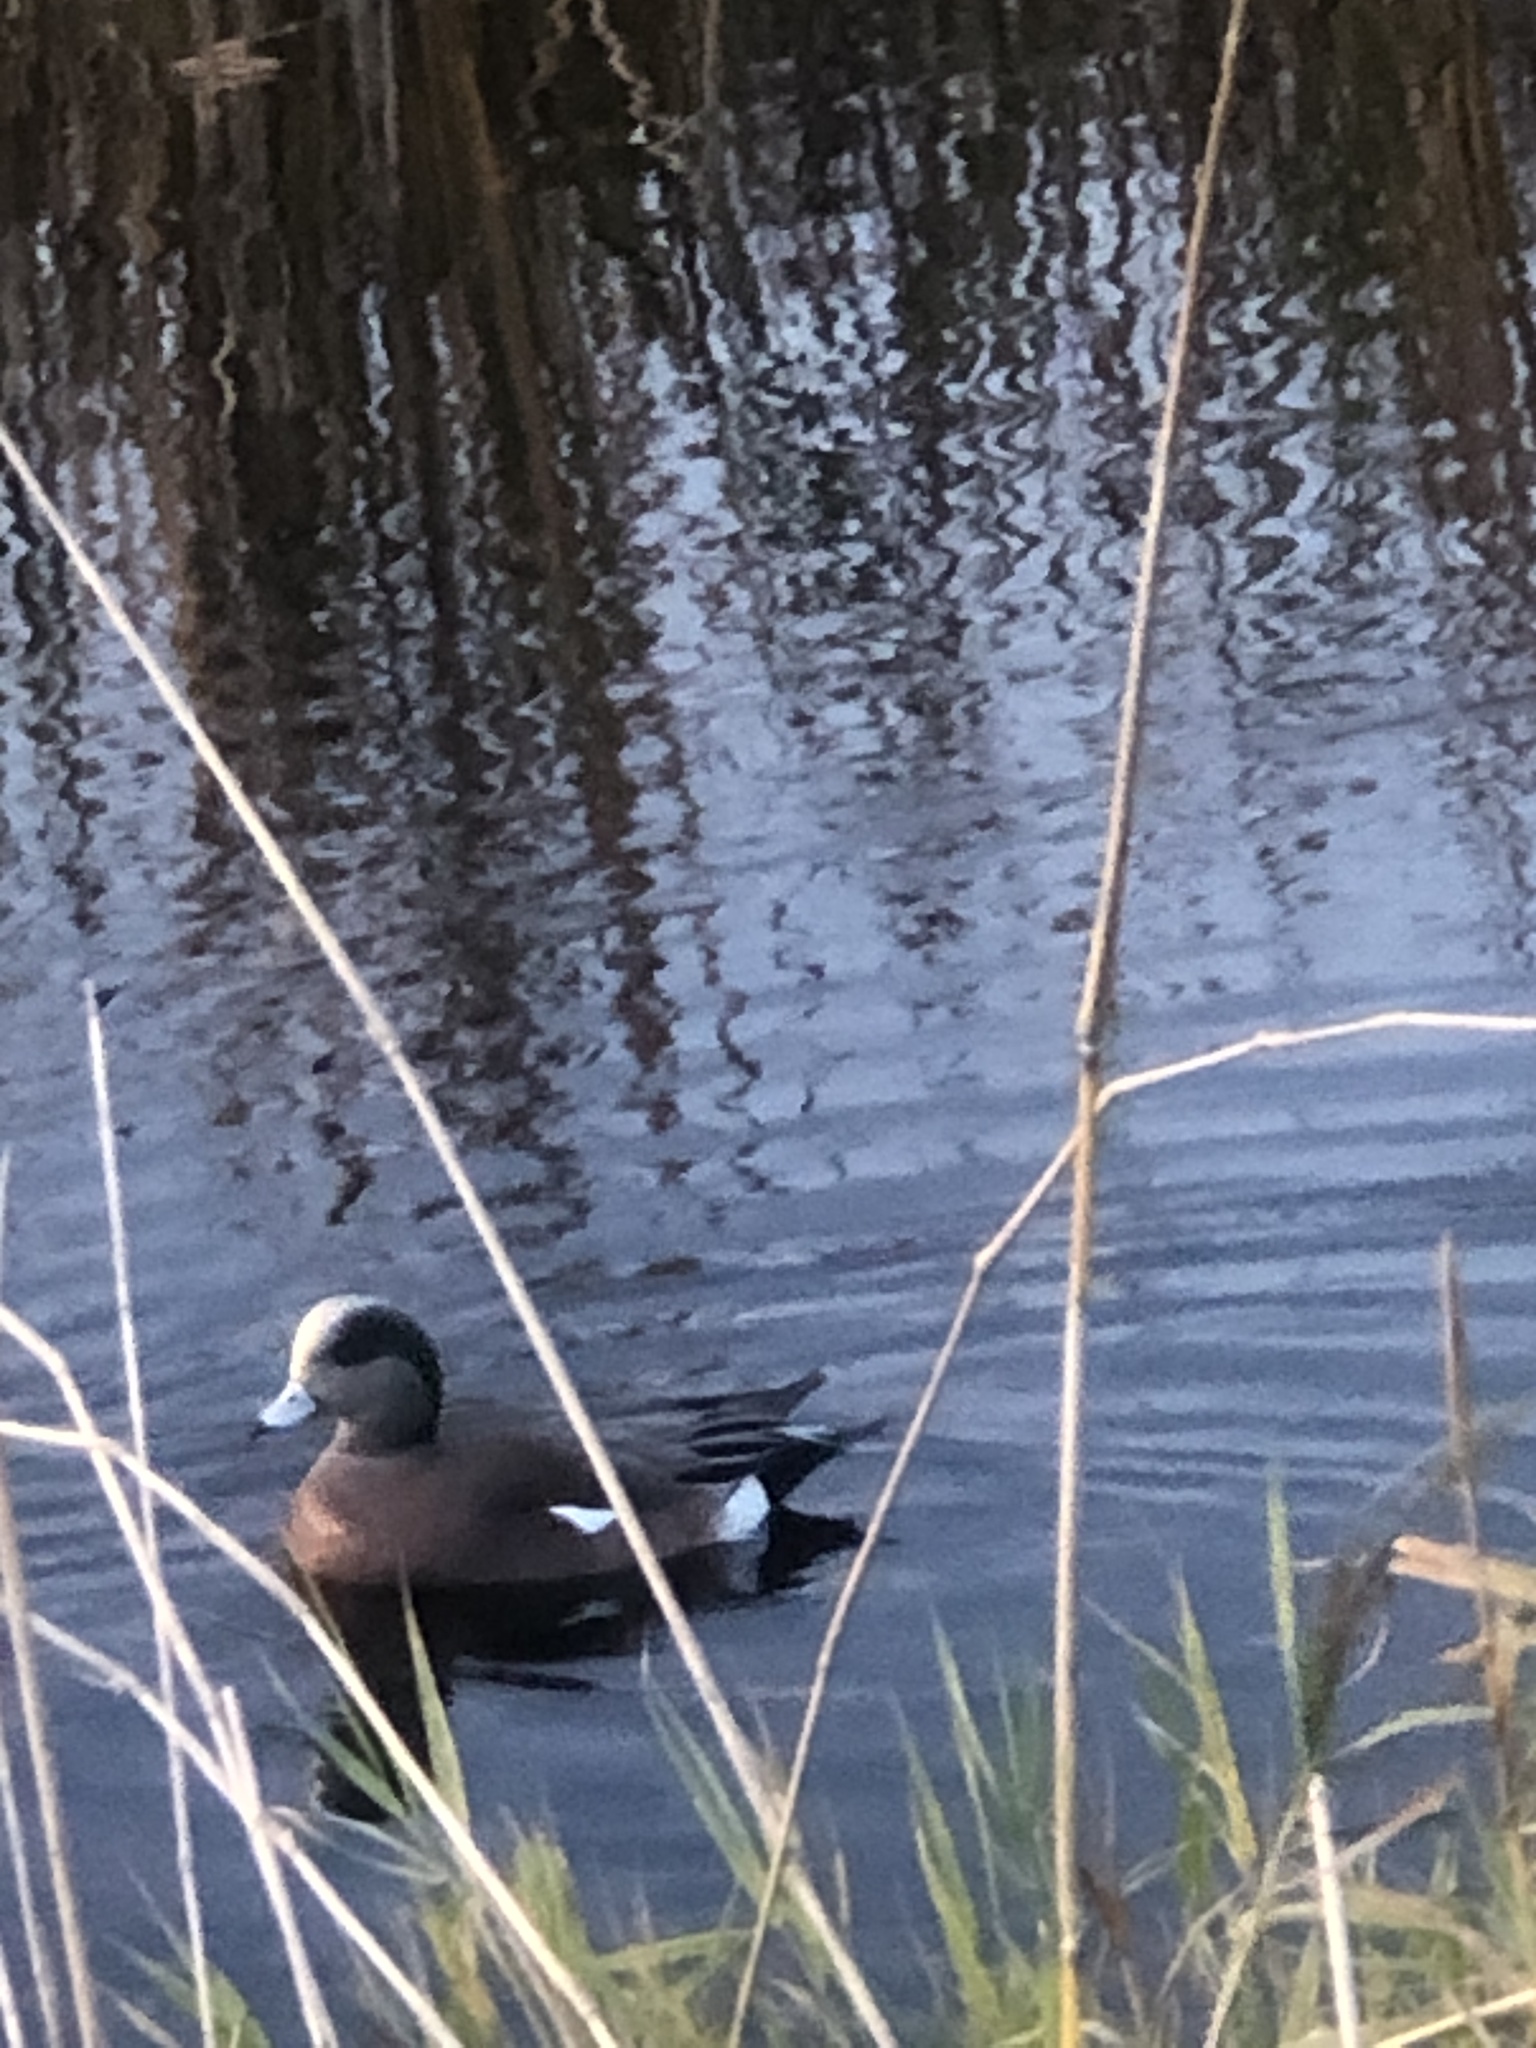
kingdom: Animalia
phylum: Chordata
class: Aves
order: Anseriformes
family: Anatidae
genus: Mareca
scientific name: Mareca americana
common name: American wigeon
